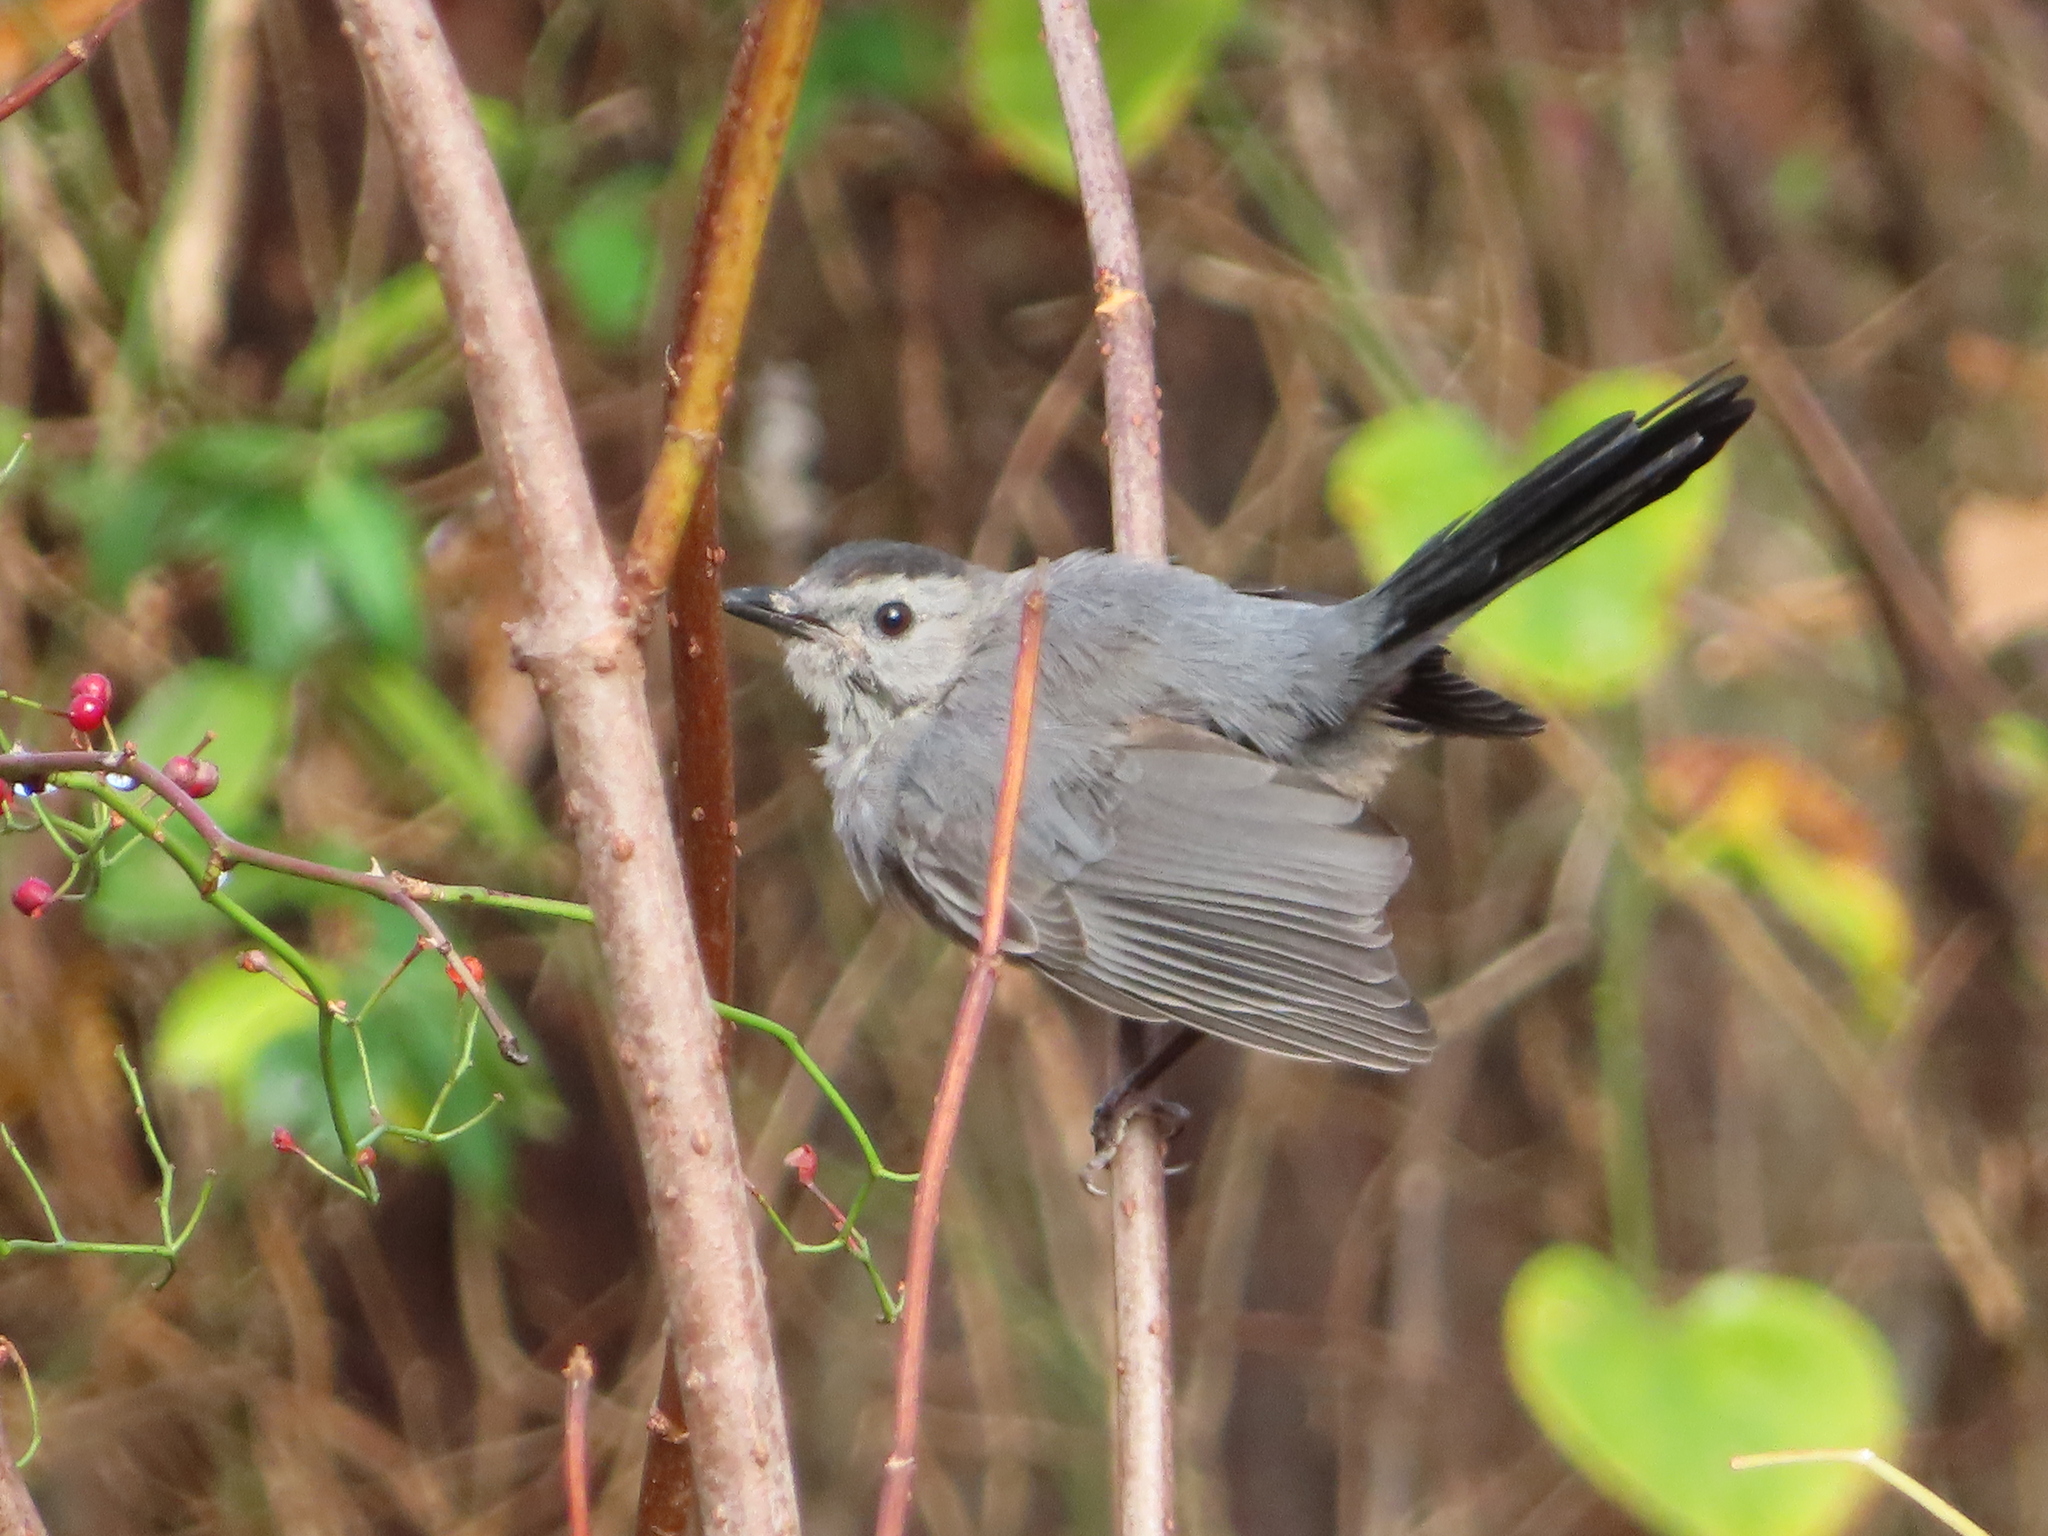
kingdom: Animalia
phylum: Chordata
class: Aves
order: Passeriformes
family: Mimidae
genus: Dumetella
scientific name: Dumetella carolinensis
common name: Gray catbird
